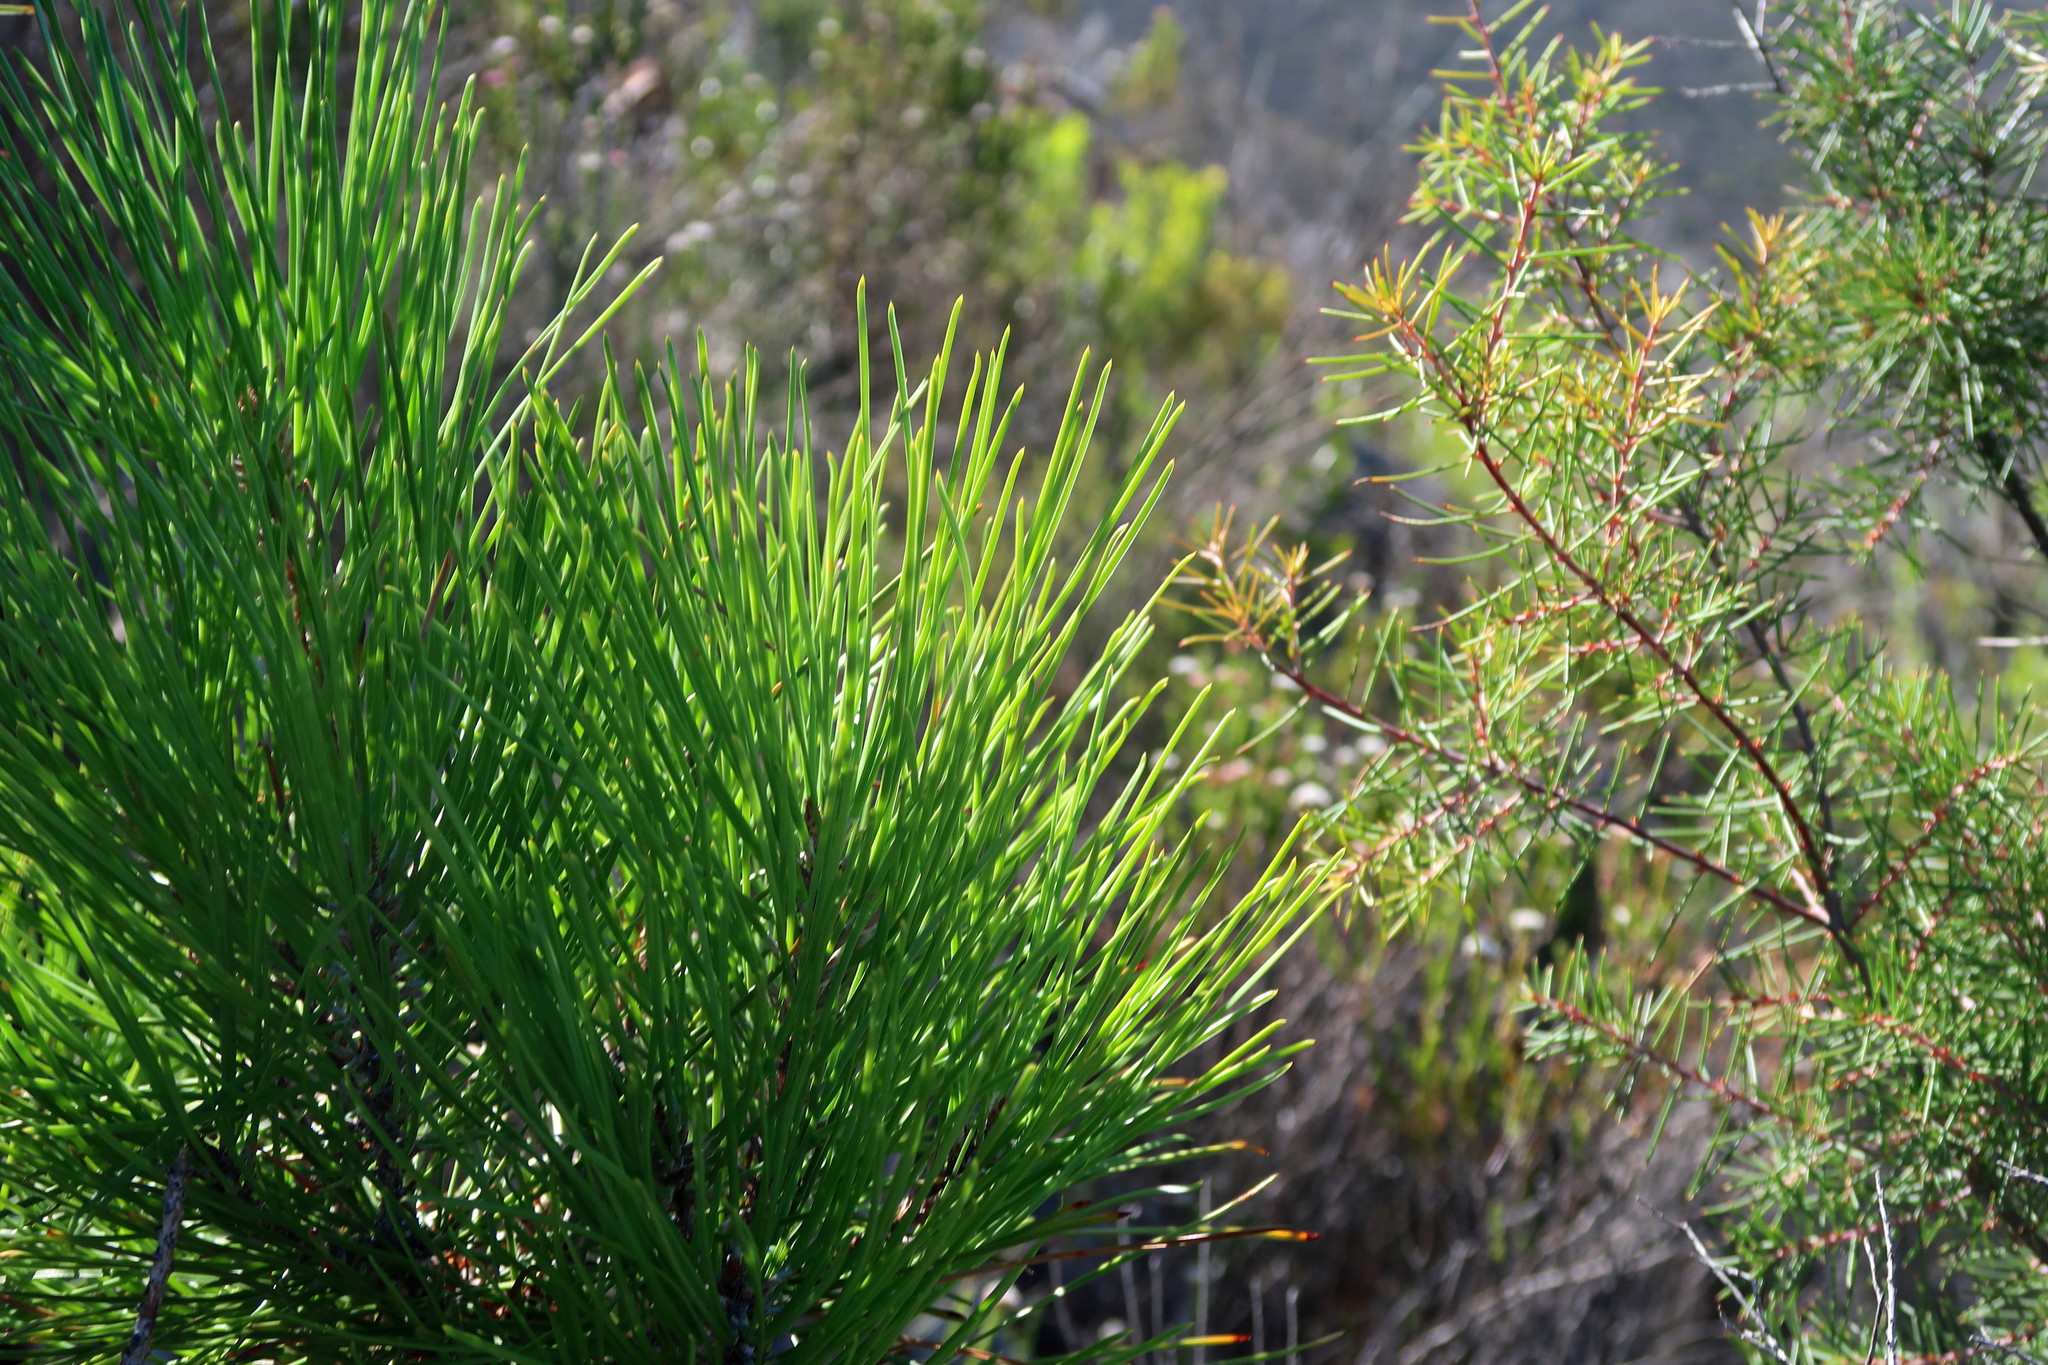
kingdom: Plantae
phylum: Tracheophyta
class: Pinopsida
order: Pinales
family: Pinaceae
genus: Pinus
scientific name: Pinus pinaster
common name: Maritime pine
